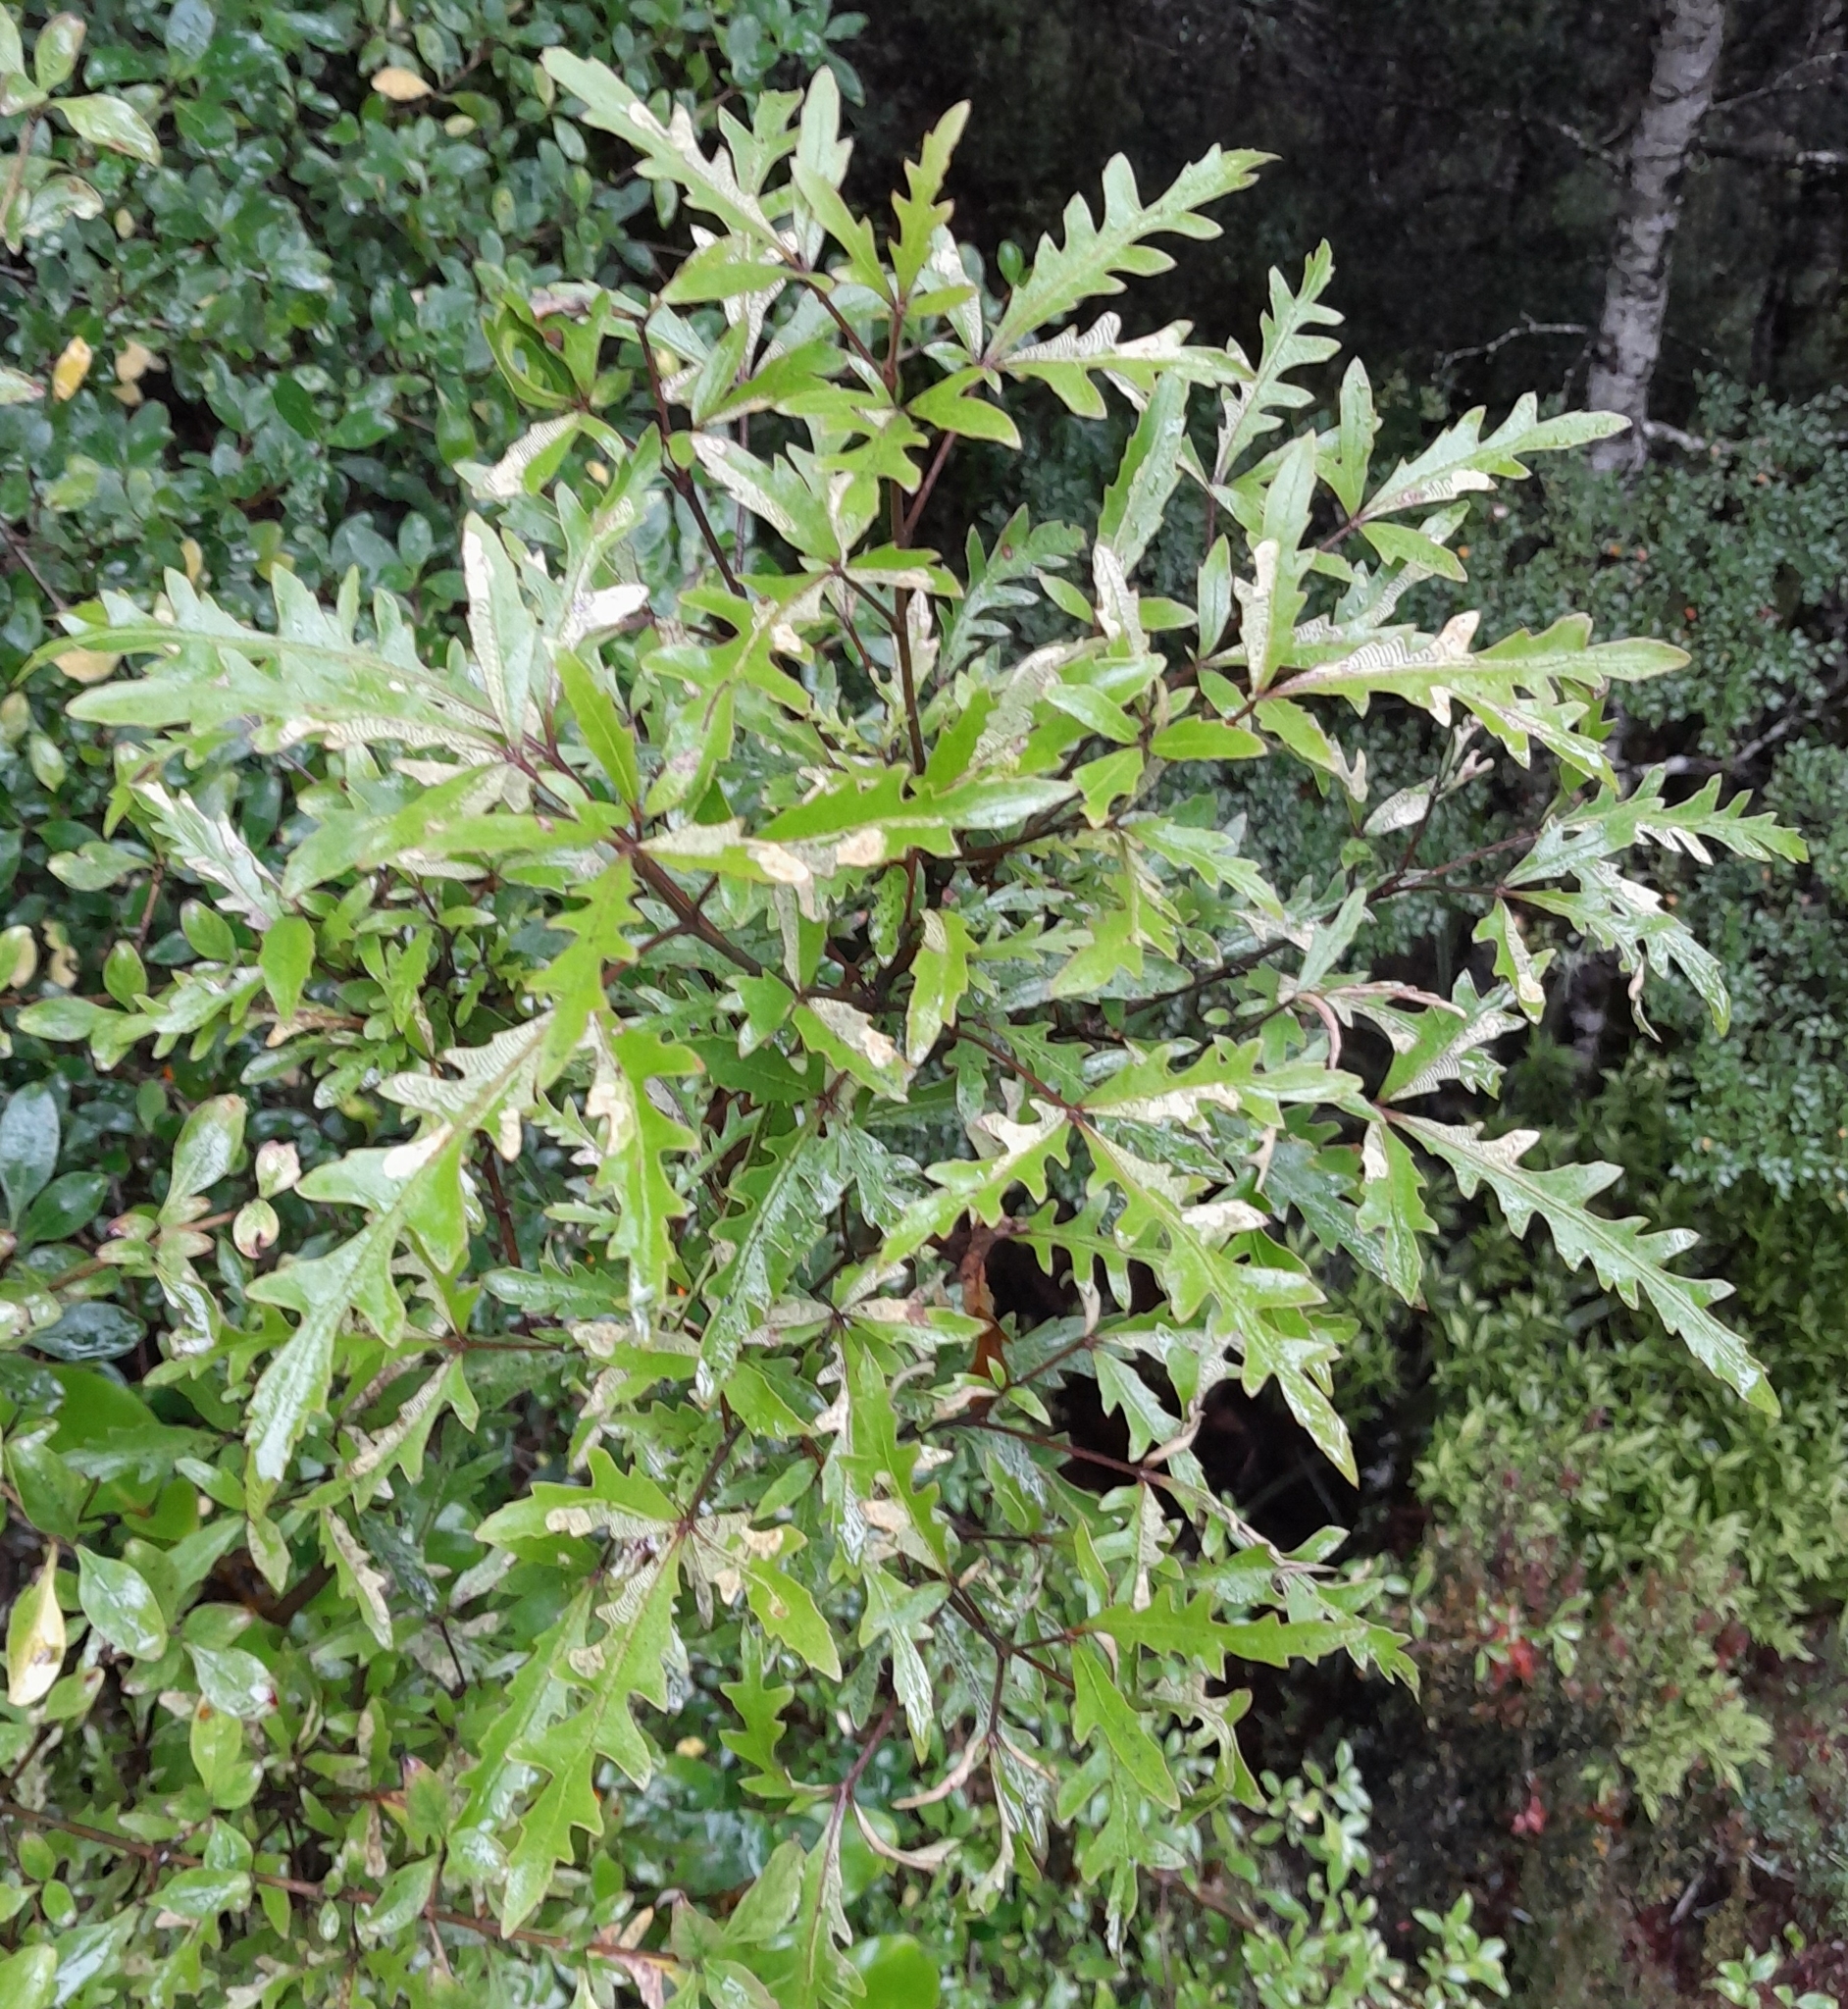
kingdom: Plantae
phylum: Tracheophyta
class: Magnoliopsida
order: Apiales
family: Araliaceae
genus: Raukaua
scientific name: Raukaua edgerleyi
